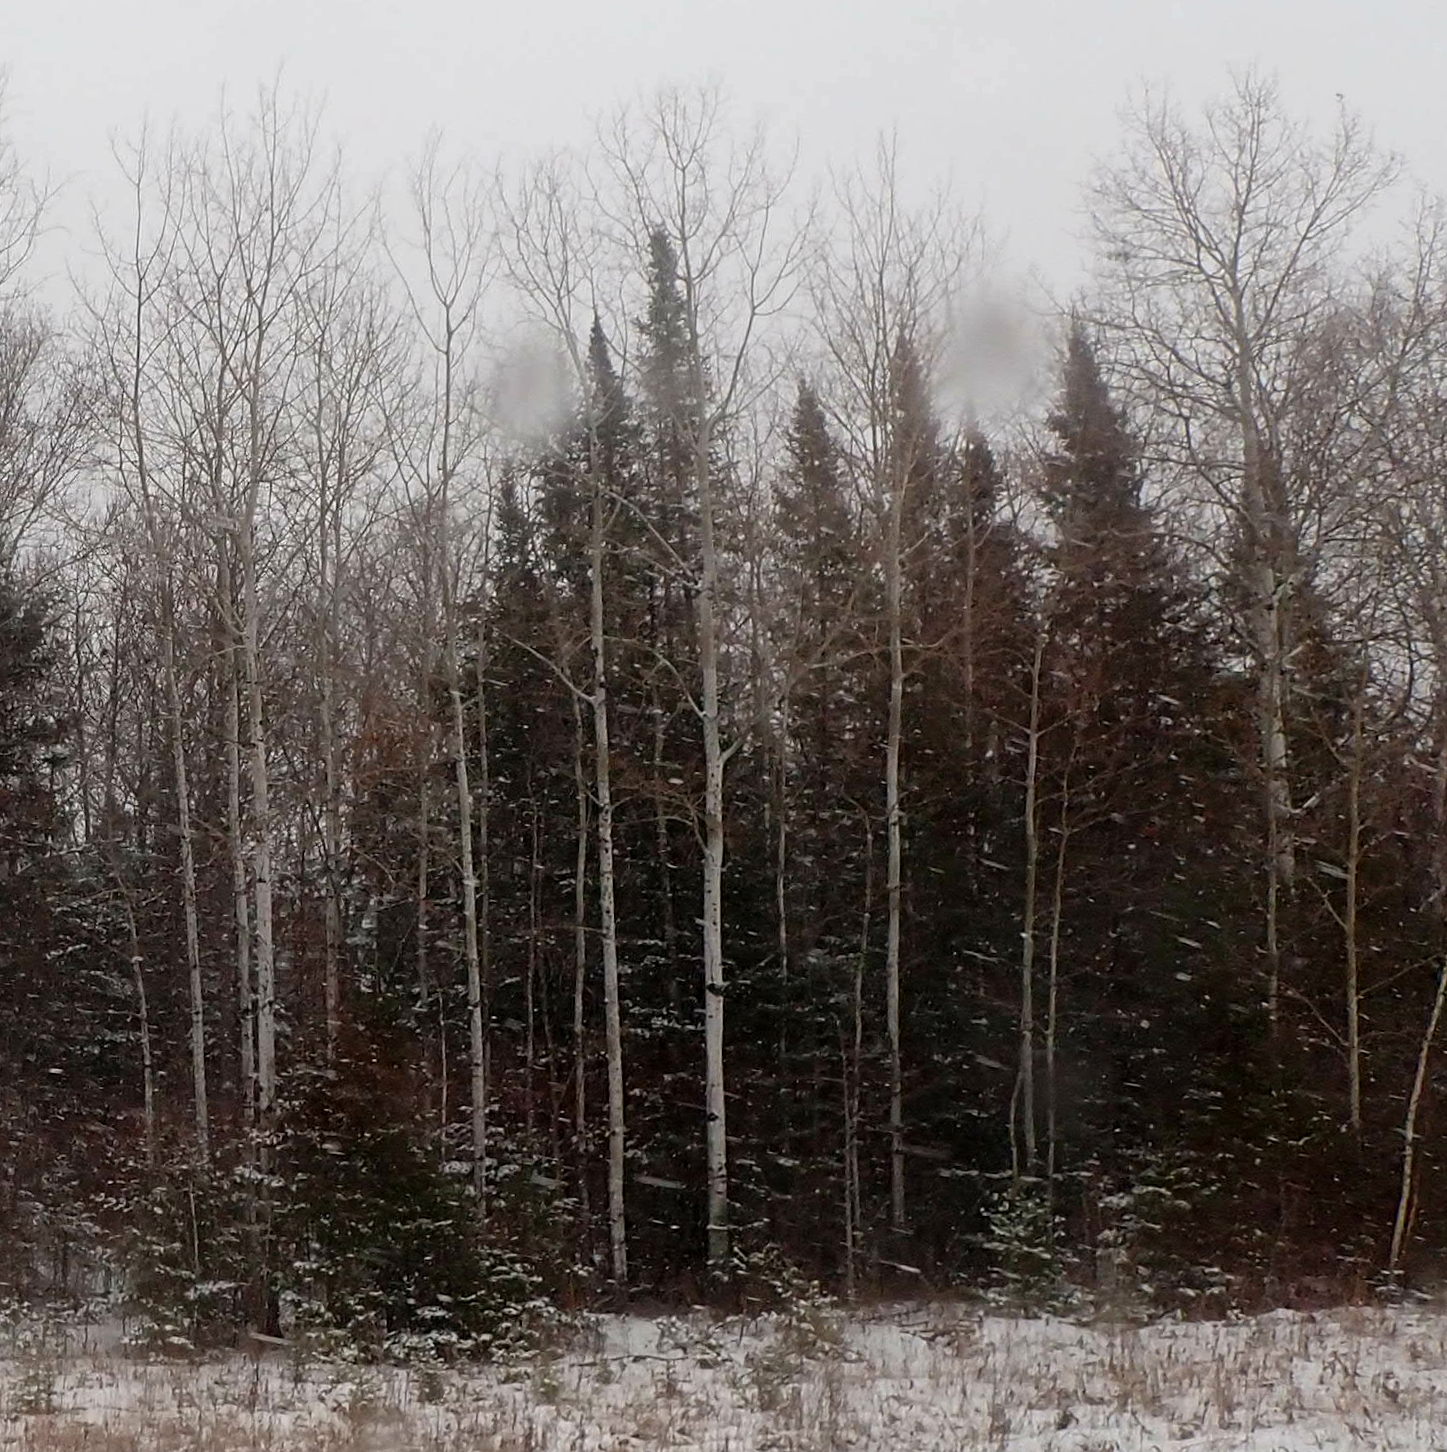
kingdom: Plantae
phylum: Tracheophyta
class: Magnoliopsida
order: Malpighiales
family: Salicaceae
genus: Populus
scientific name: Populus tremuloides
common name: Quaking aspen
